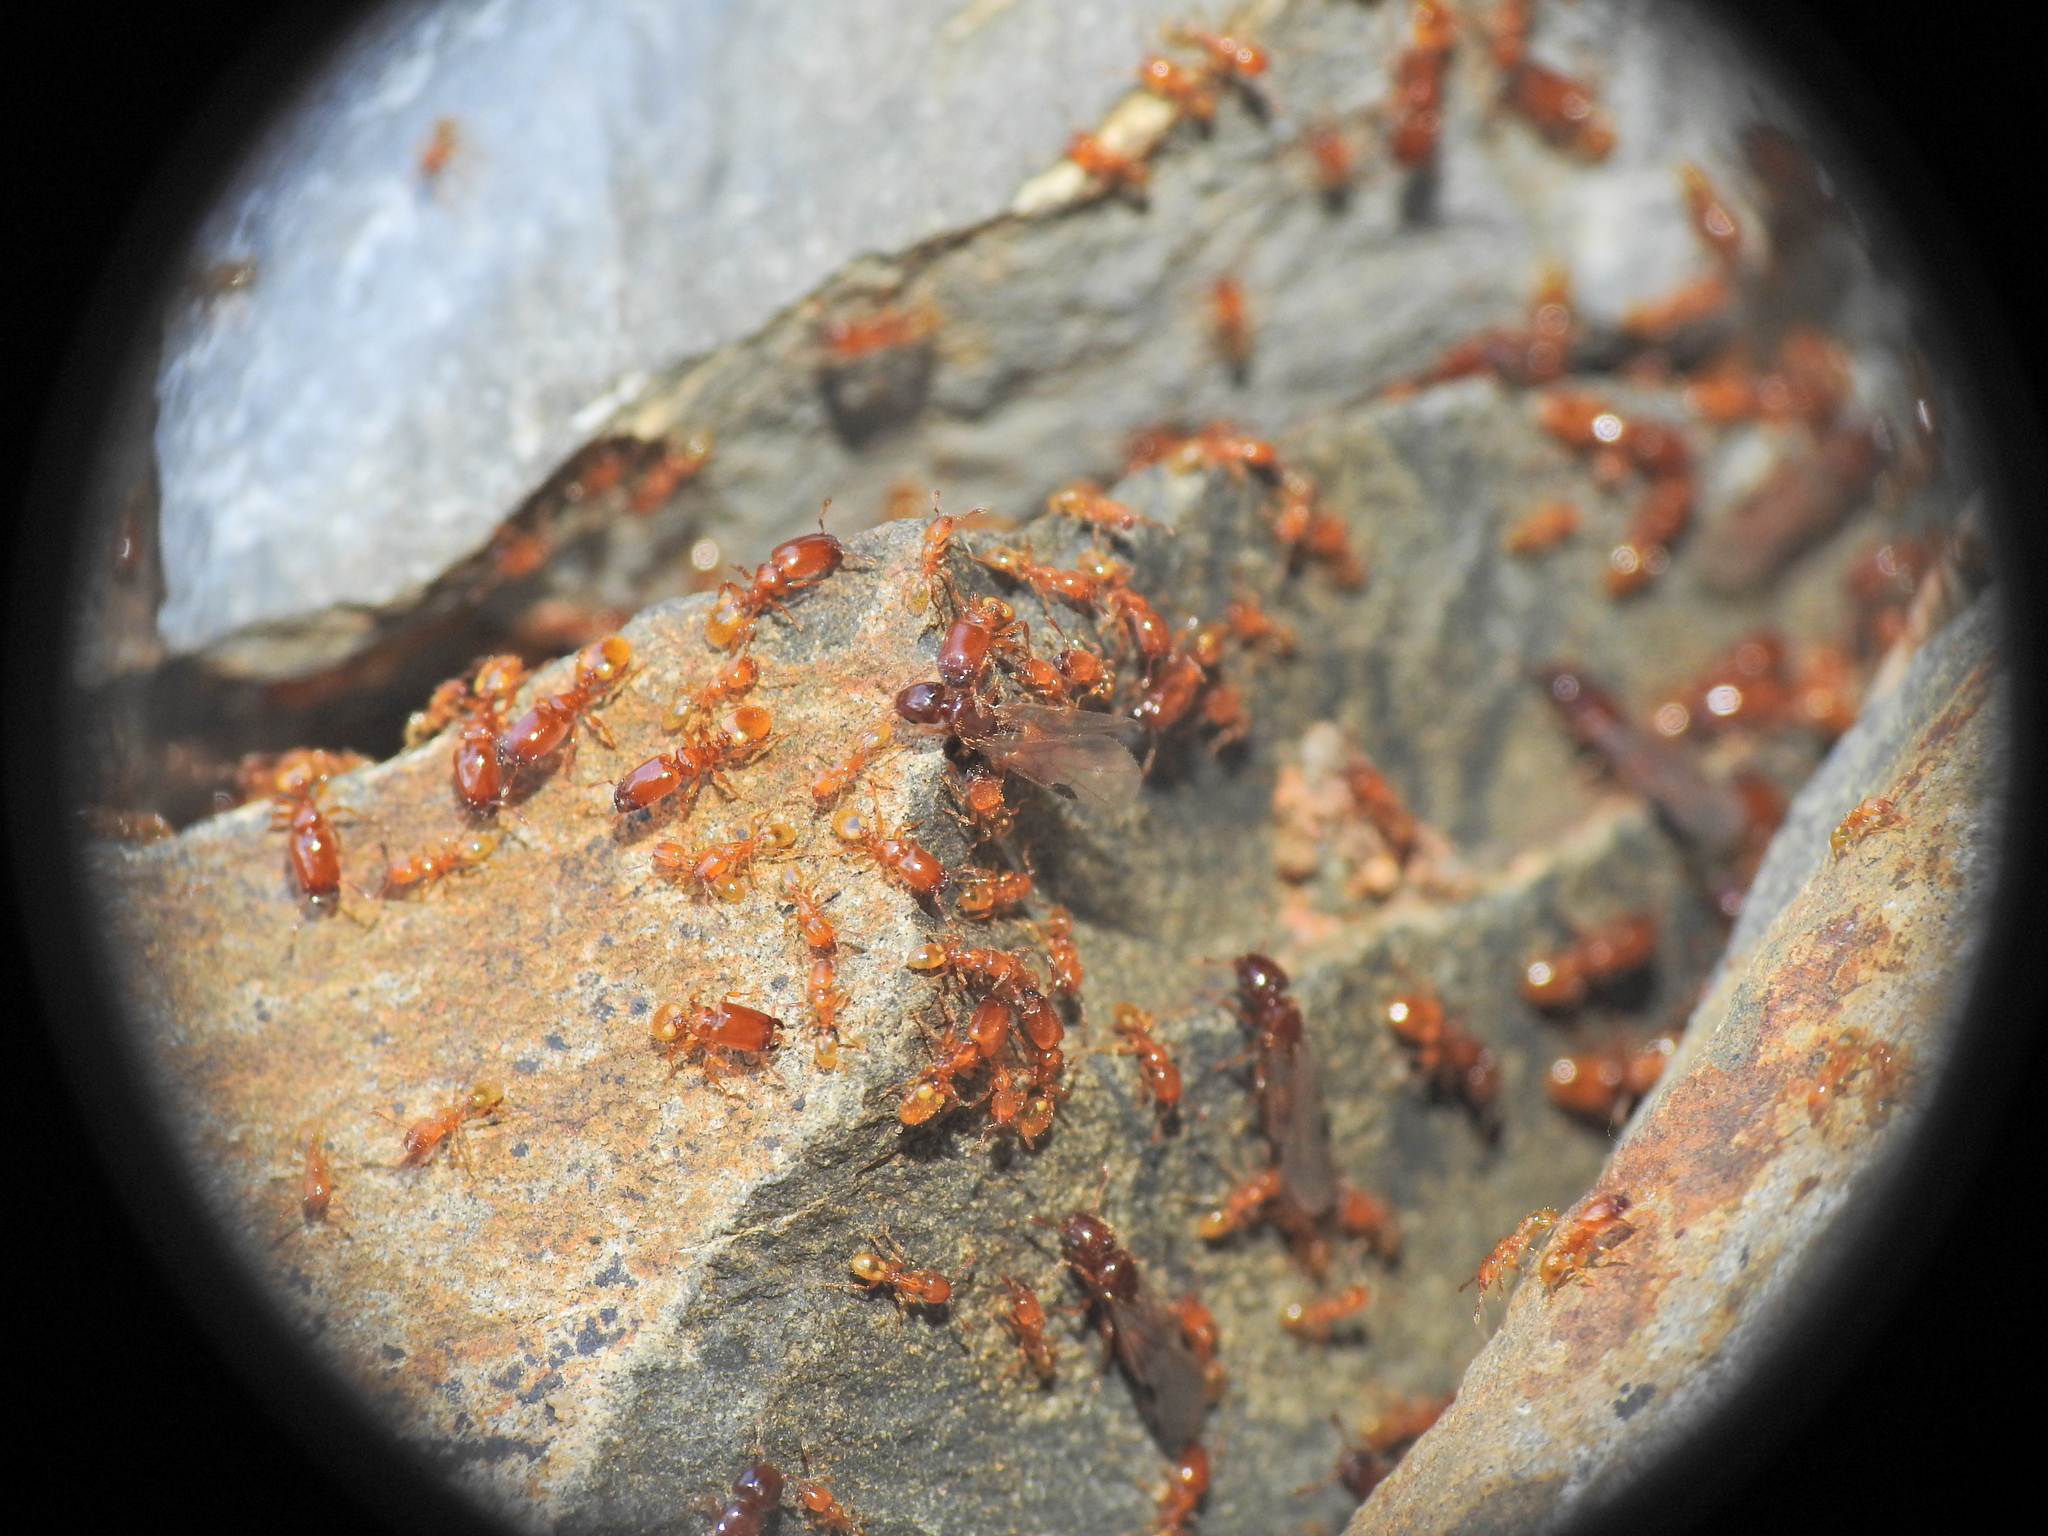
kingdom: Animalia
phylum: Arthropoda
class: Insecta
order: Hymenoptera
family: Formicidae
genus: Pheidole
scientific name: Pheidole
